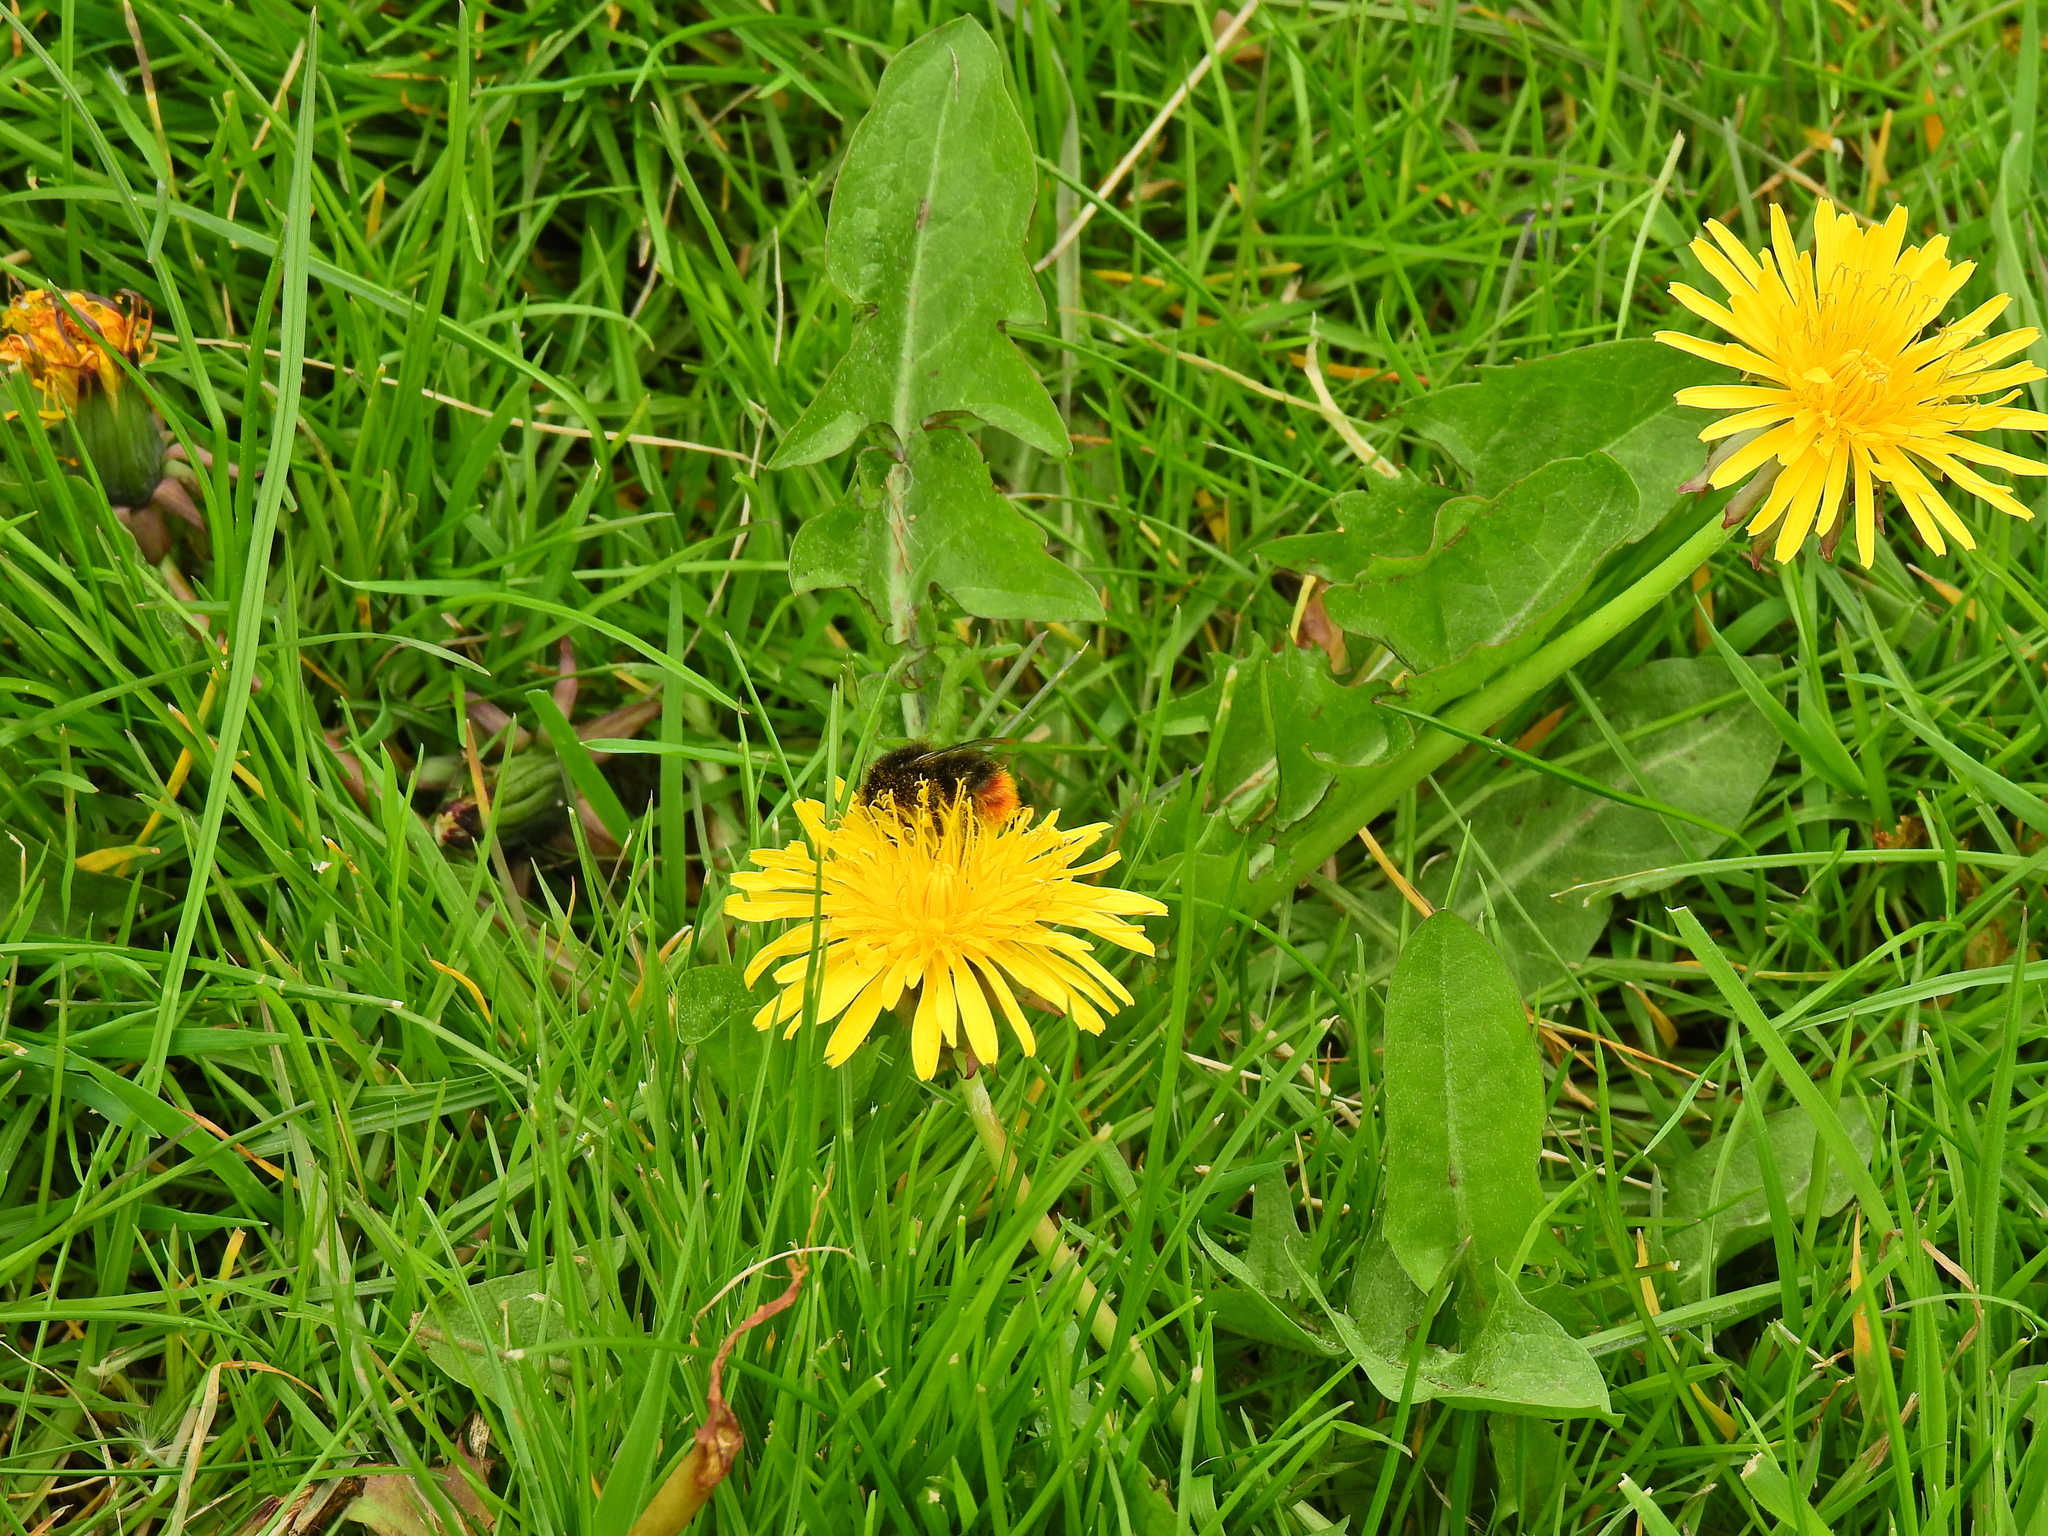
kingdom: Animalia
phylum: Arthropoda
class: Insecta
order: Hymenoptera
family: Apidae
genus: Bombus
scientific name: Bombus lapidarius
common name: Large red-tailed humble-bee
